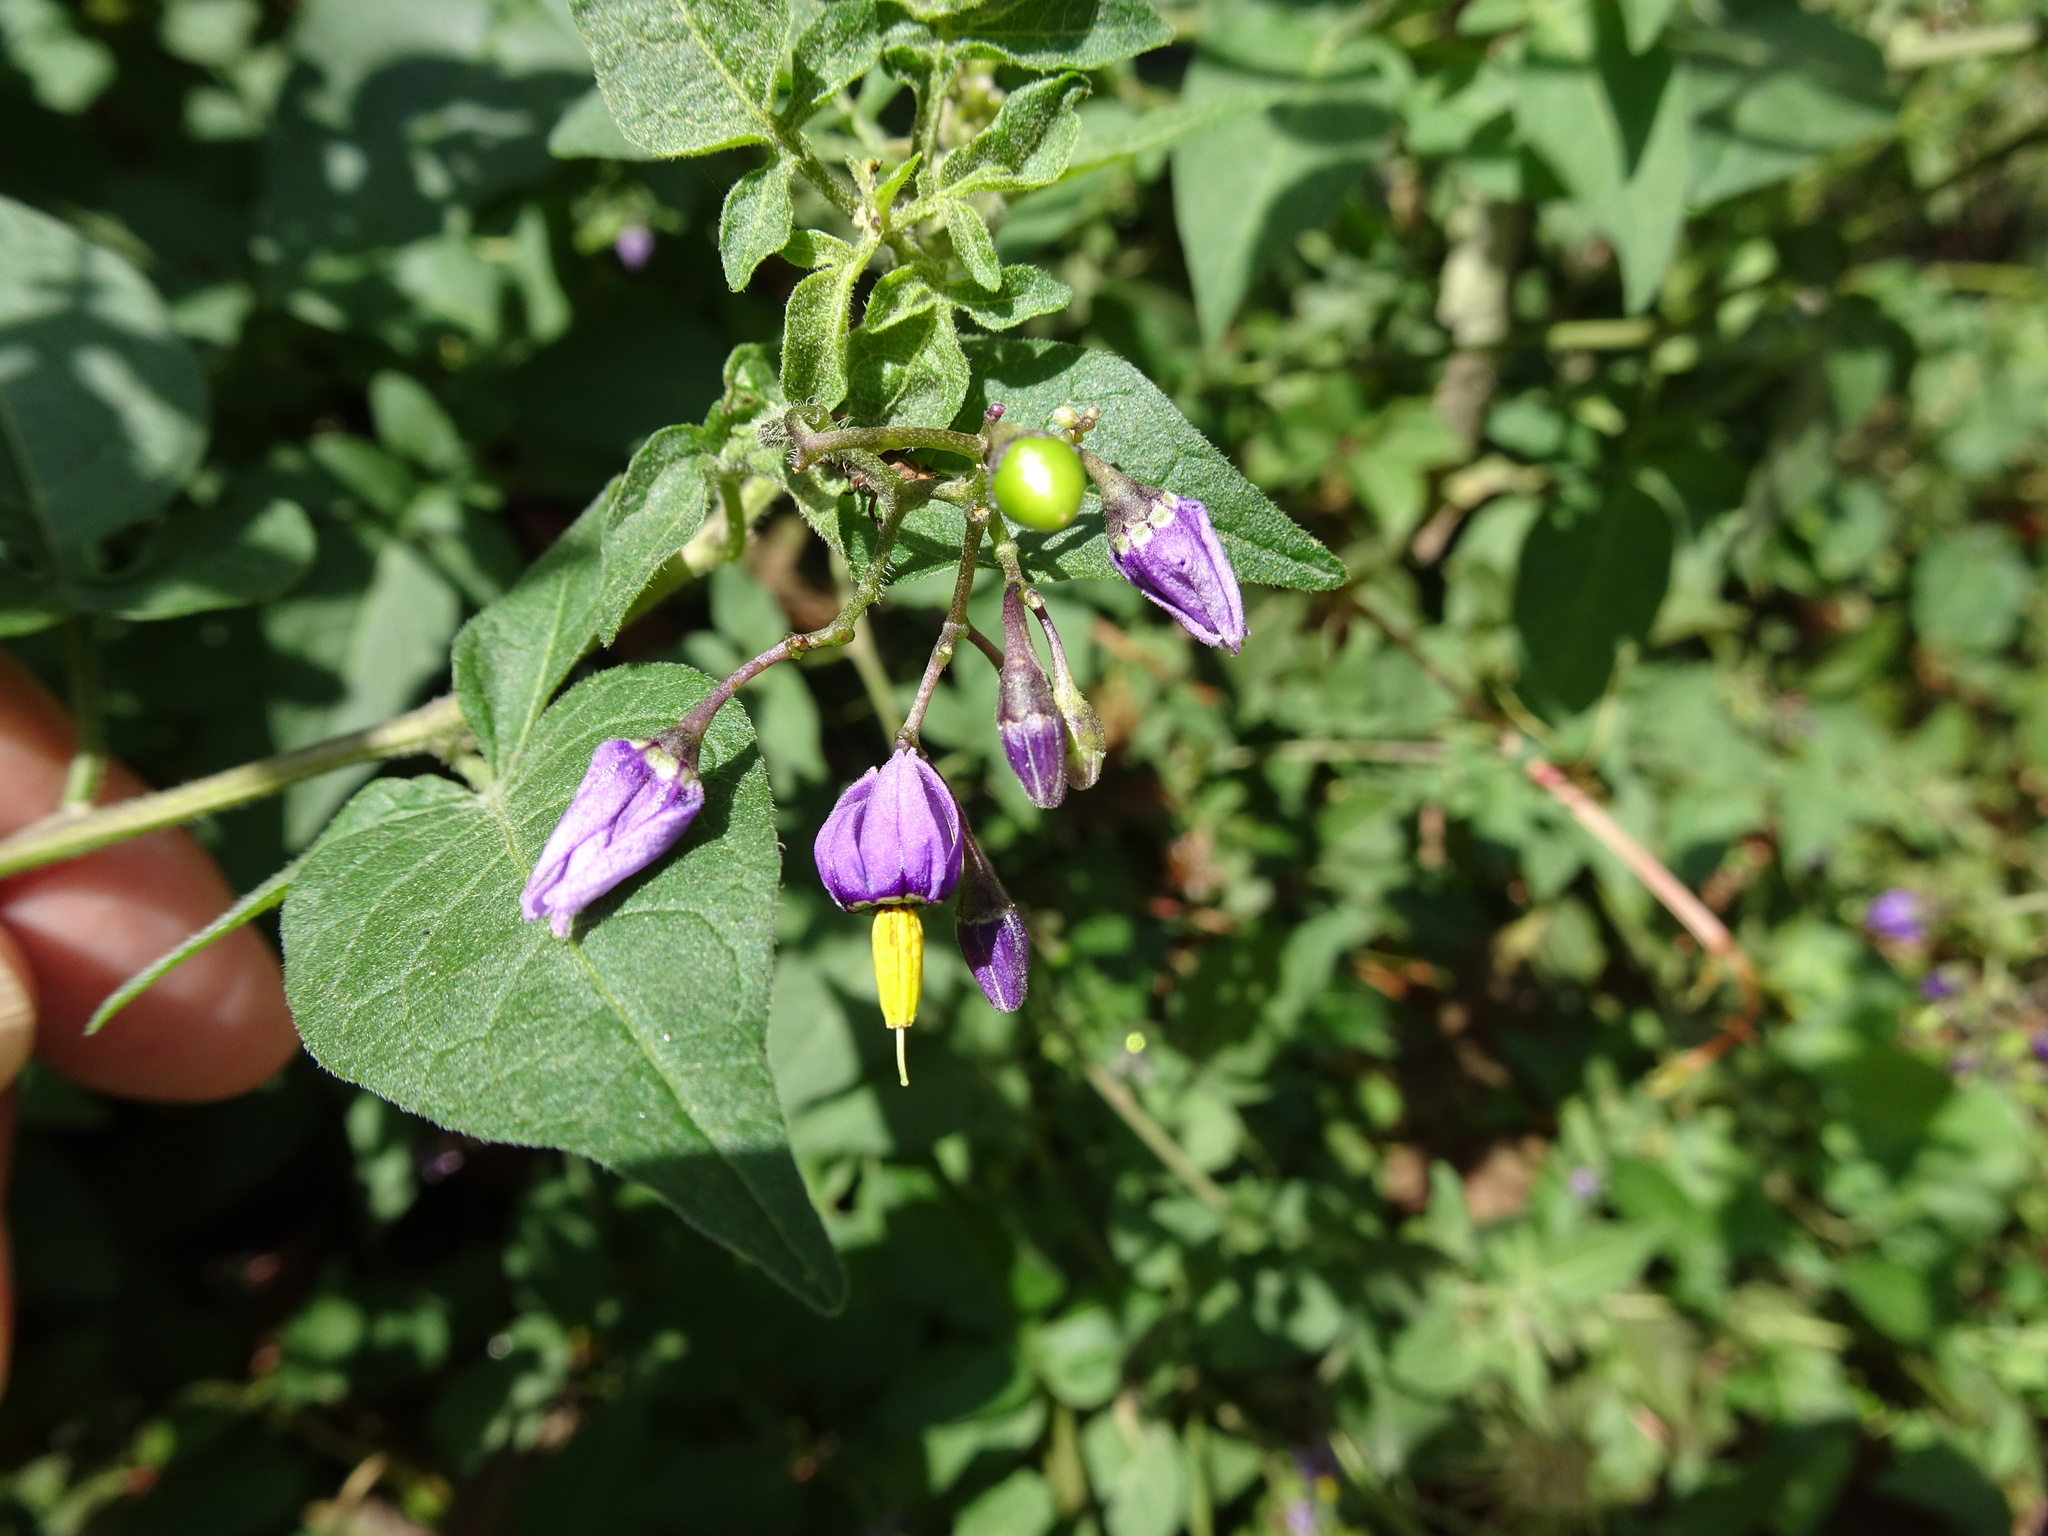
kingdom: Plantae
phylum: Tracheophyta
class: Magnoliopsida
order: Solanales
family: Solanaceae
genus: Solanum
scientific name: Solanum dulcamara
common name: Climbing nightshade
